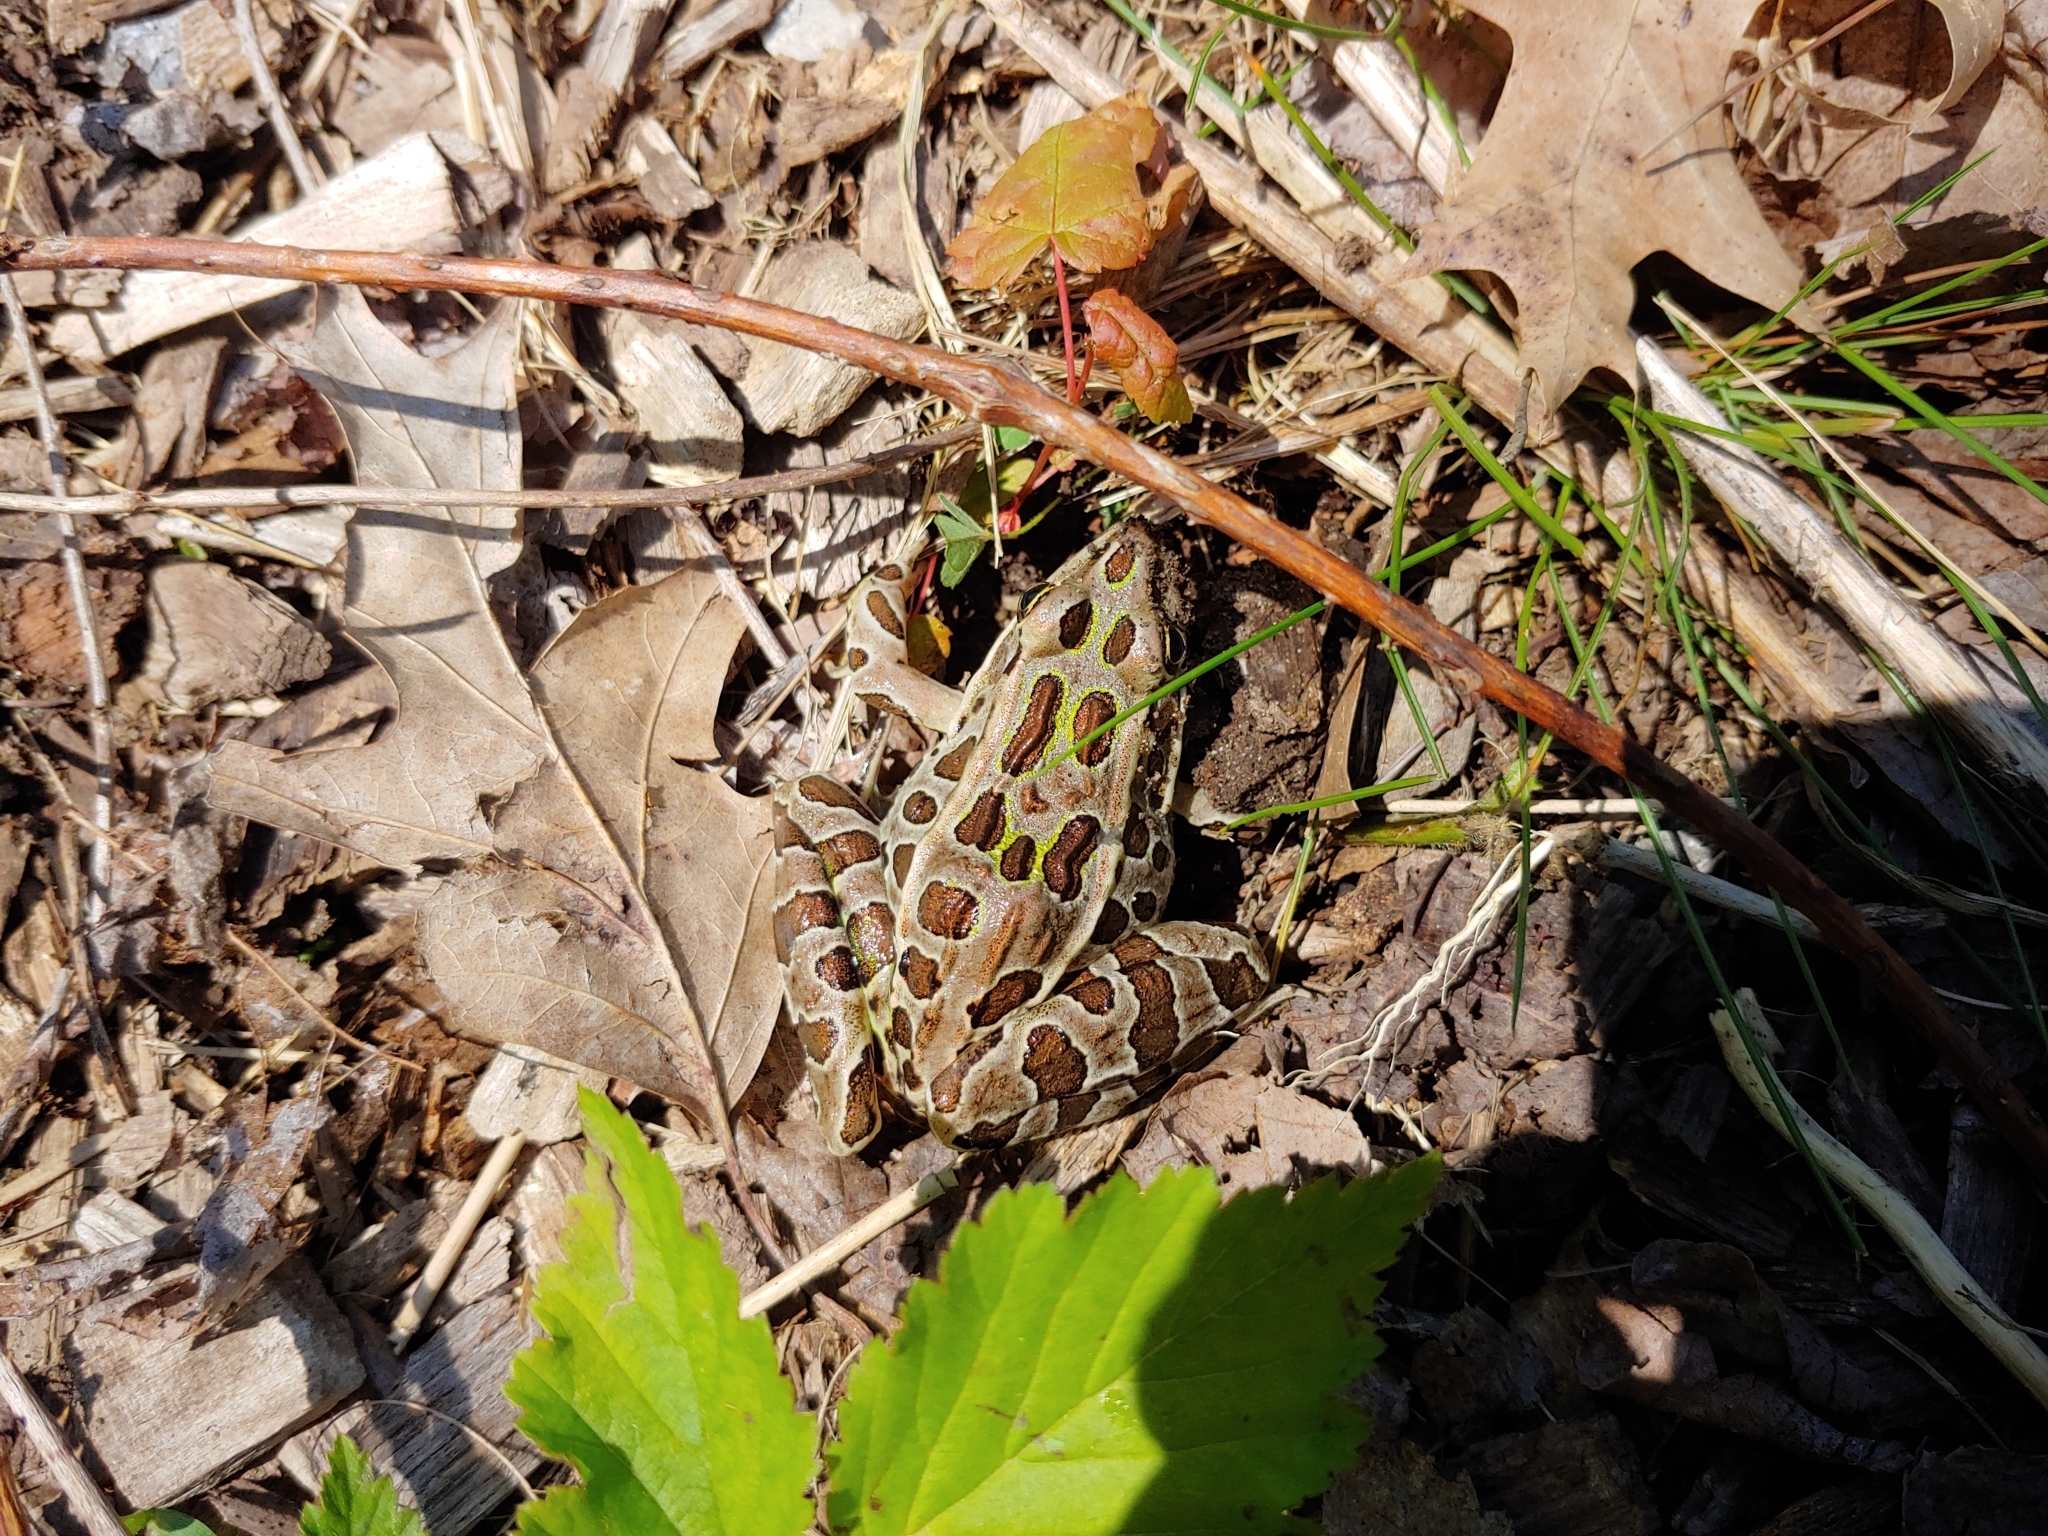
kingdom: Animalia
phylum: Chordata
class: Amphibia
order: Anura
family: Ranidae
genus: Lithobates
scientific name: Lithobates pipiens
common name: Northern leopard frog
